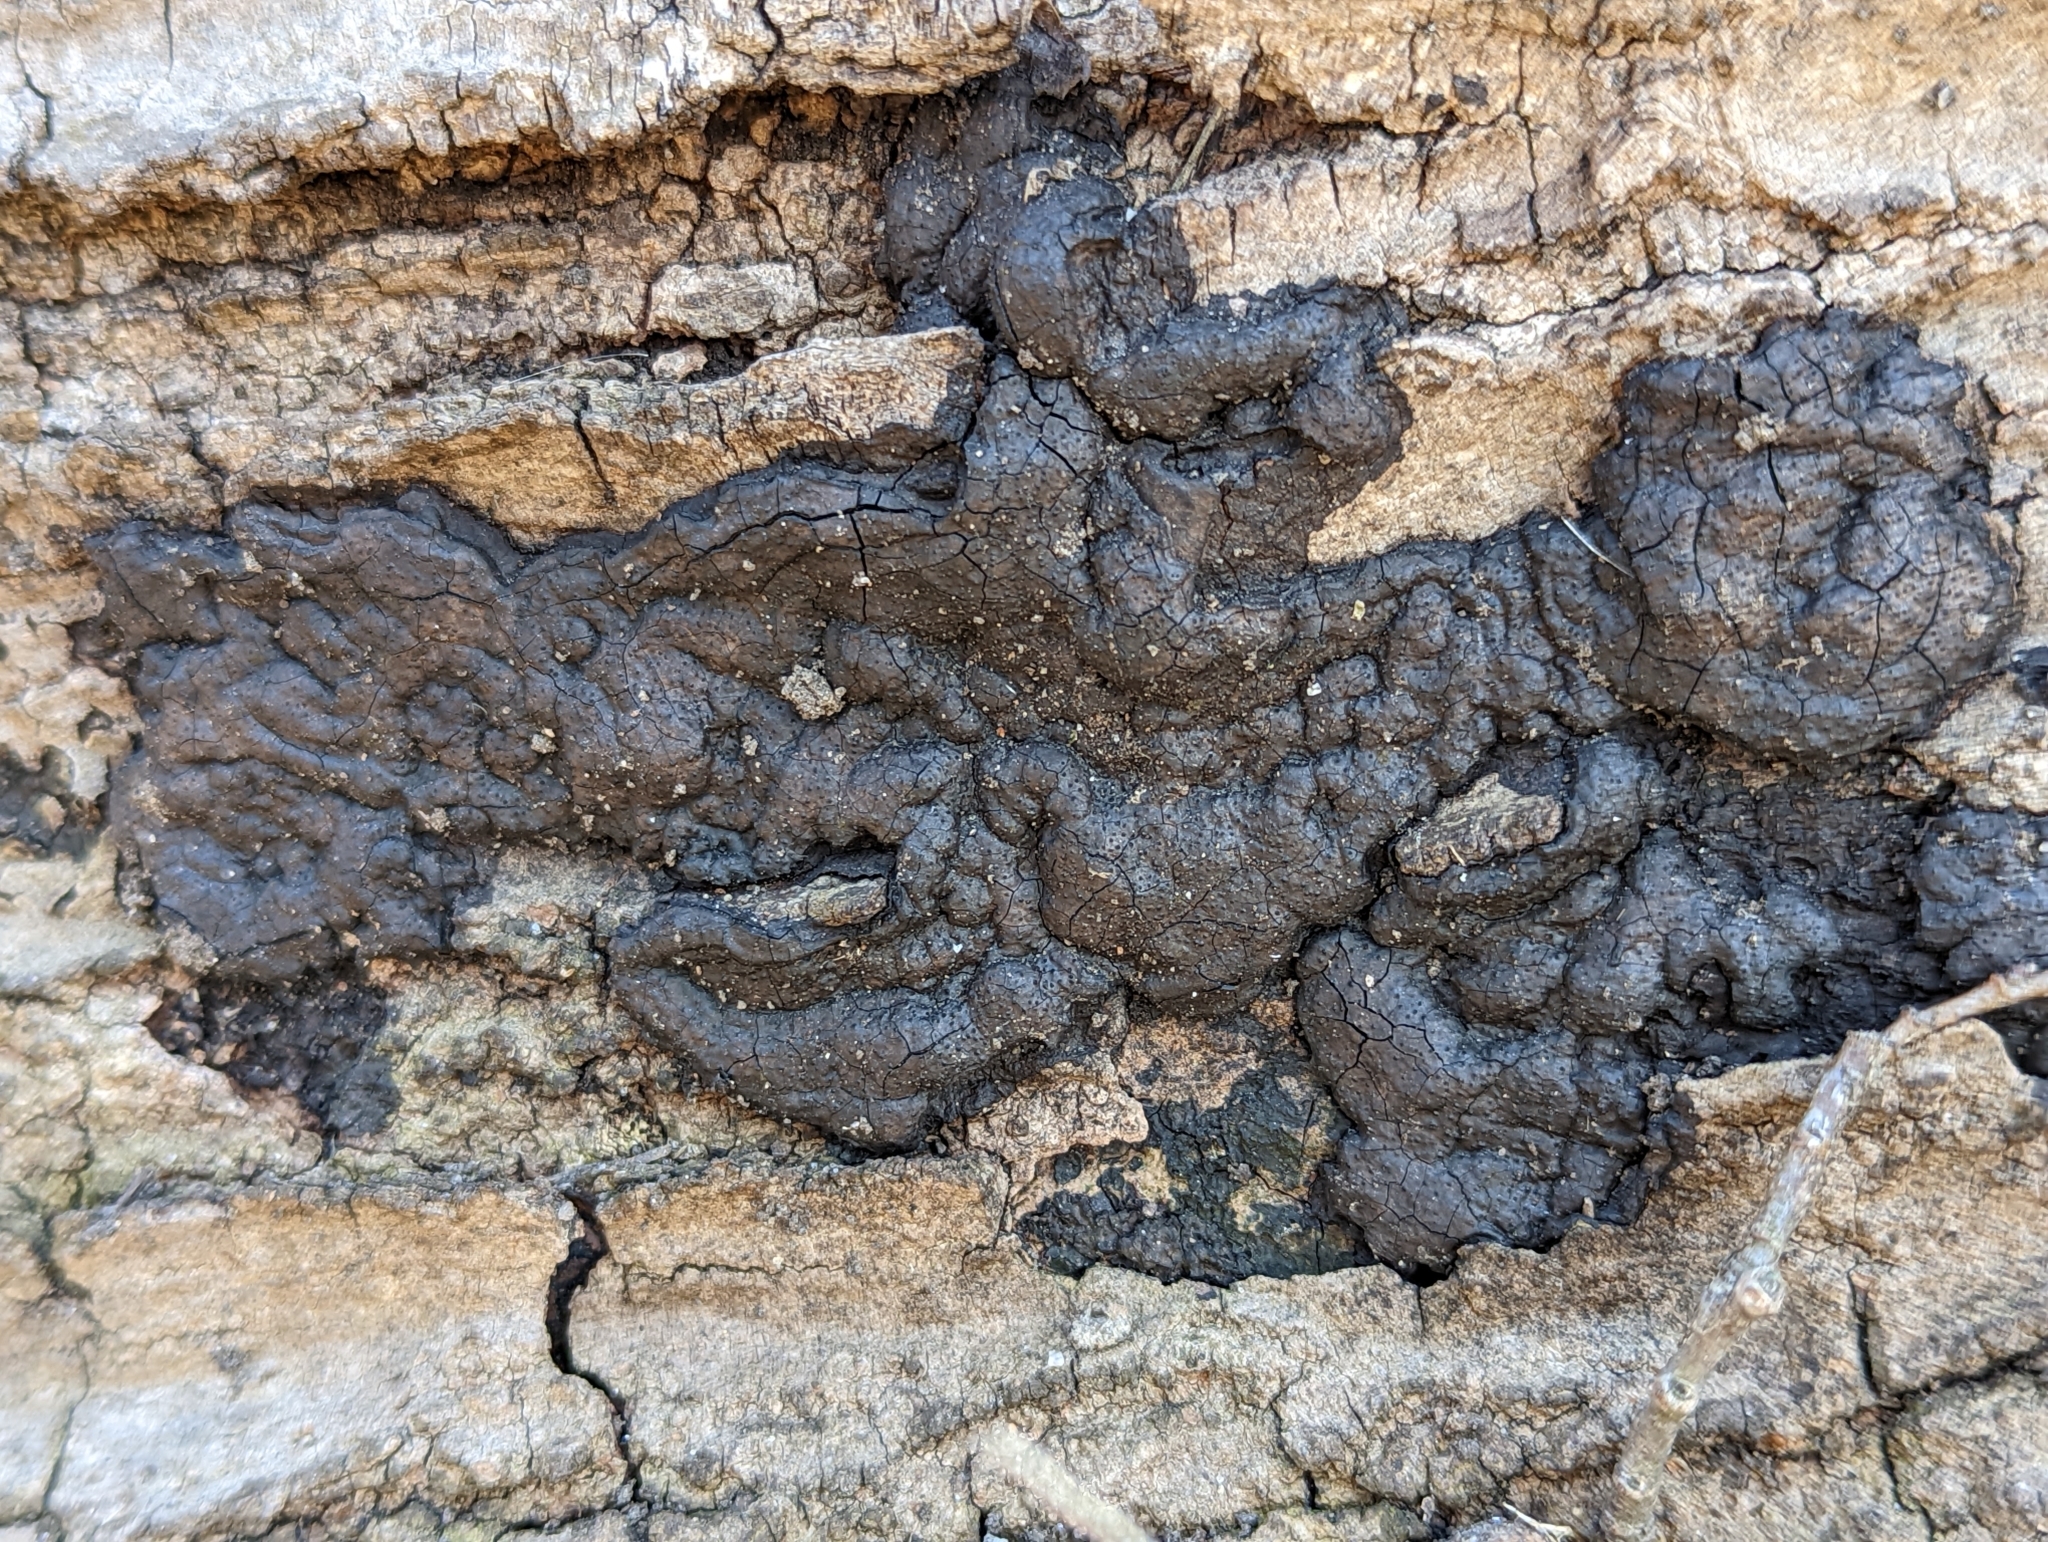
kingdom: Fungi
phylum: Ascomycota
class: Sordariomycetes
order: Xylariales
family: Xylariaceae
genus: Kretzschmaria
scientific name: Kretzschmaria deusta
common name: Brittle cinder
